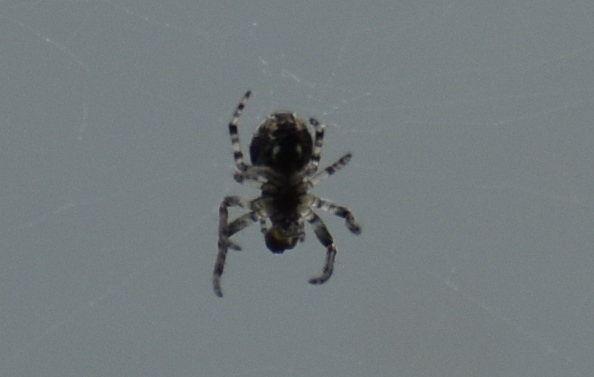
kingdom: Animalia
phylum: Arthropoda
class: Arachnida
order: Araneae
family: Araneidae
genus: Larinioides
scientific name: Larinioides sclopetarius
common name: Bridge orbweaver
